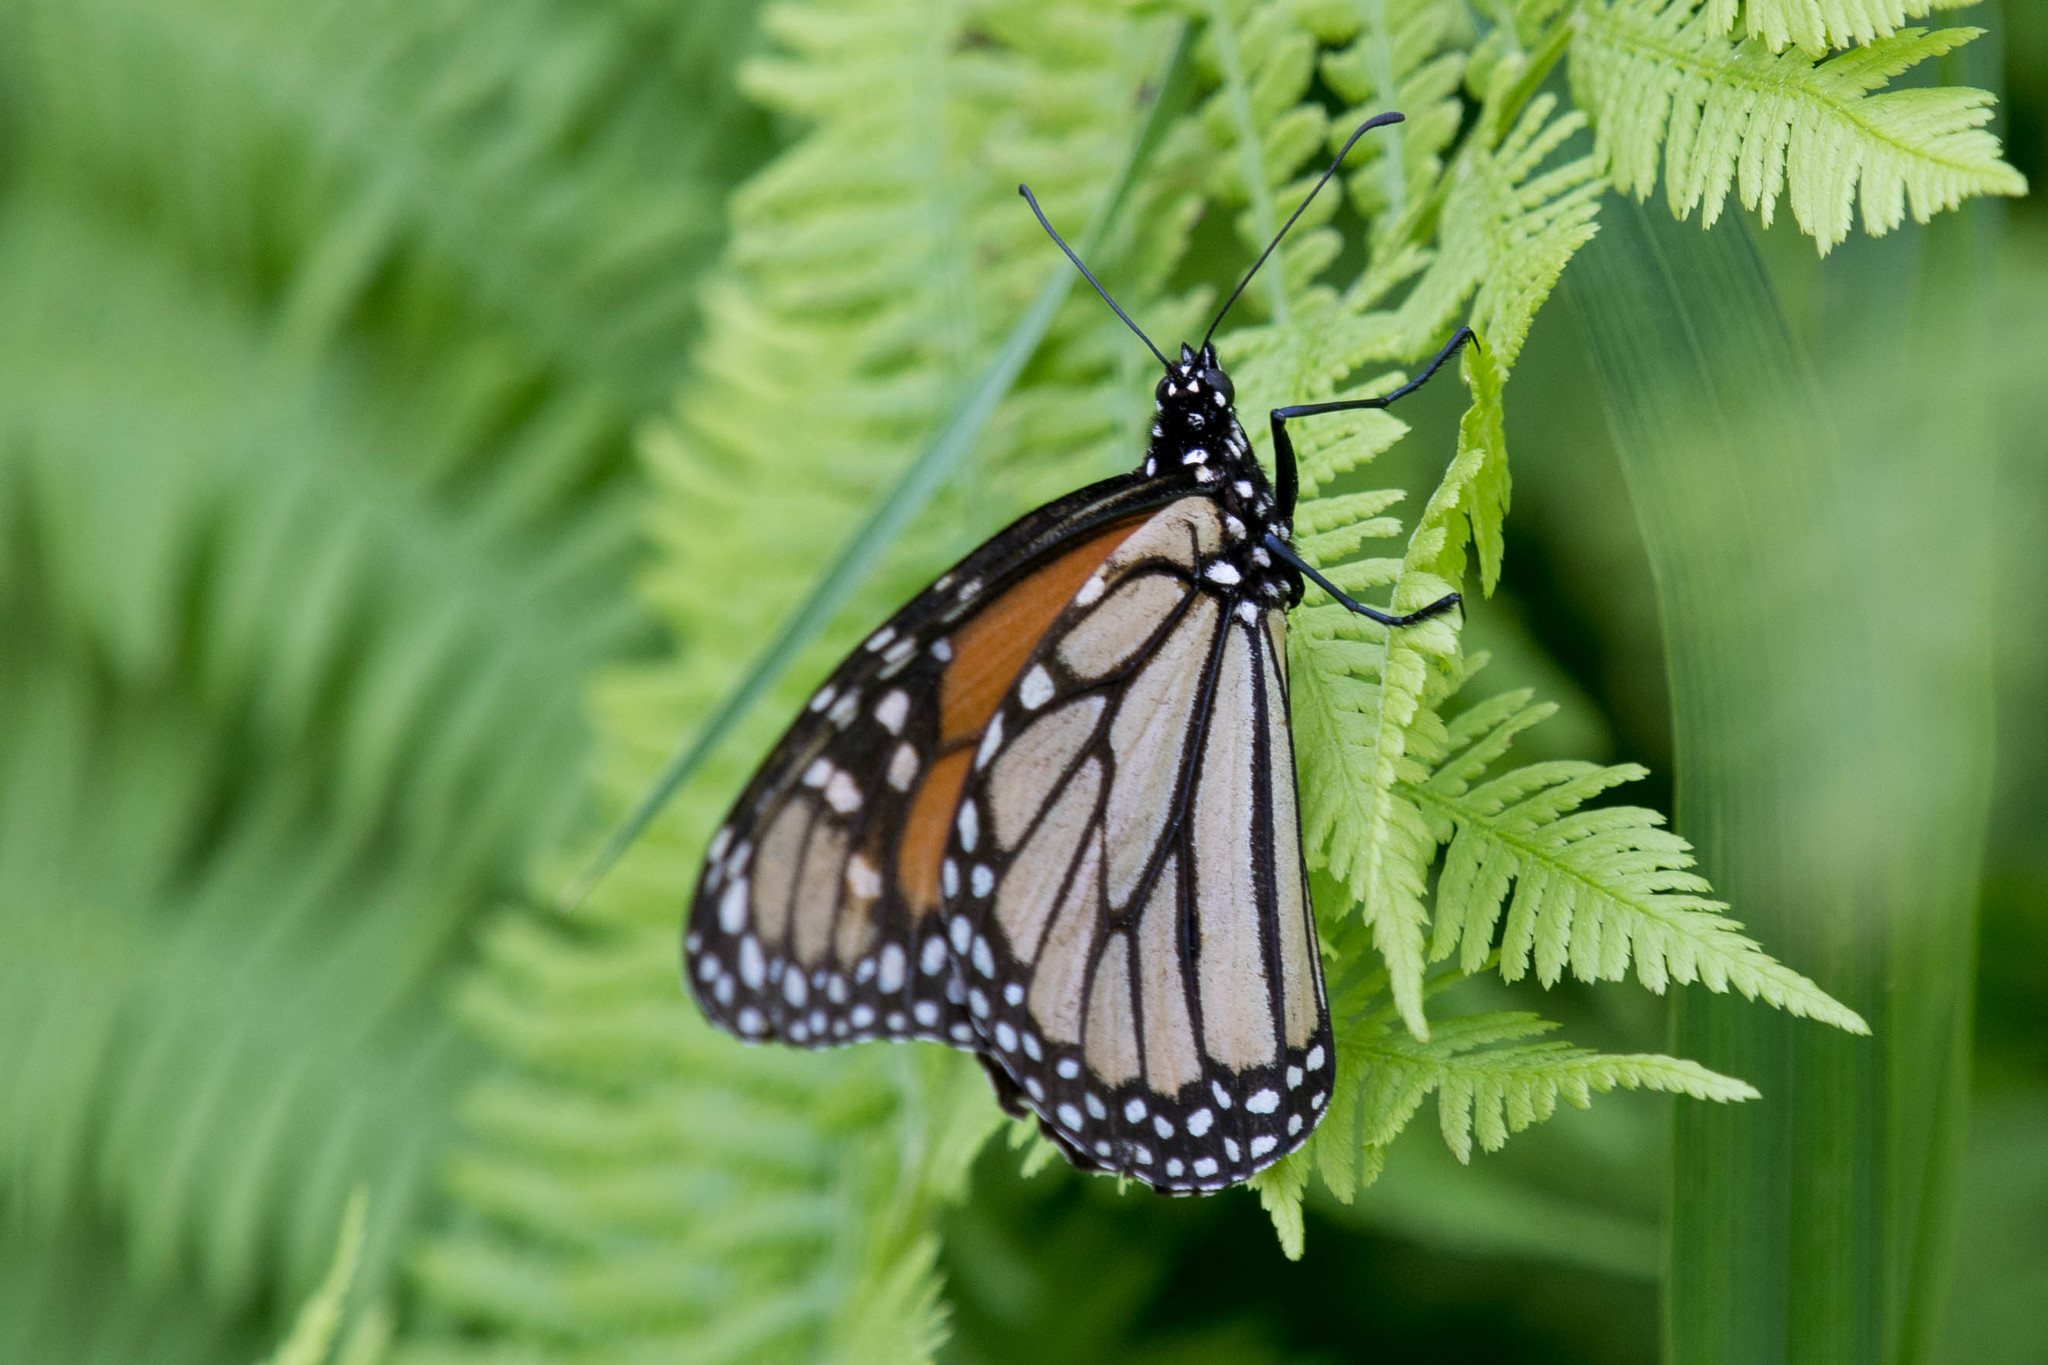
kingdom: Animalia
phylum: Arthropoda
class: Insecta
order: Lepidoptera
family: Nymphalidae
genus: Danaus
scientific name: Danaus plexippus
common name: Monarch
